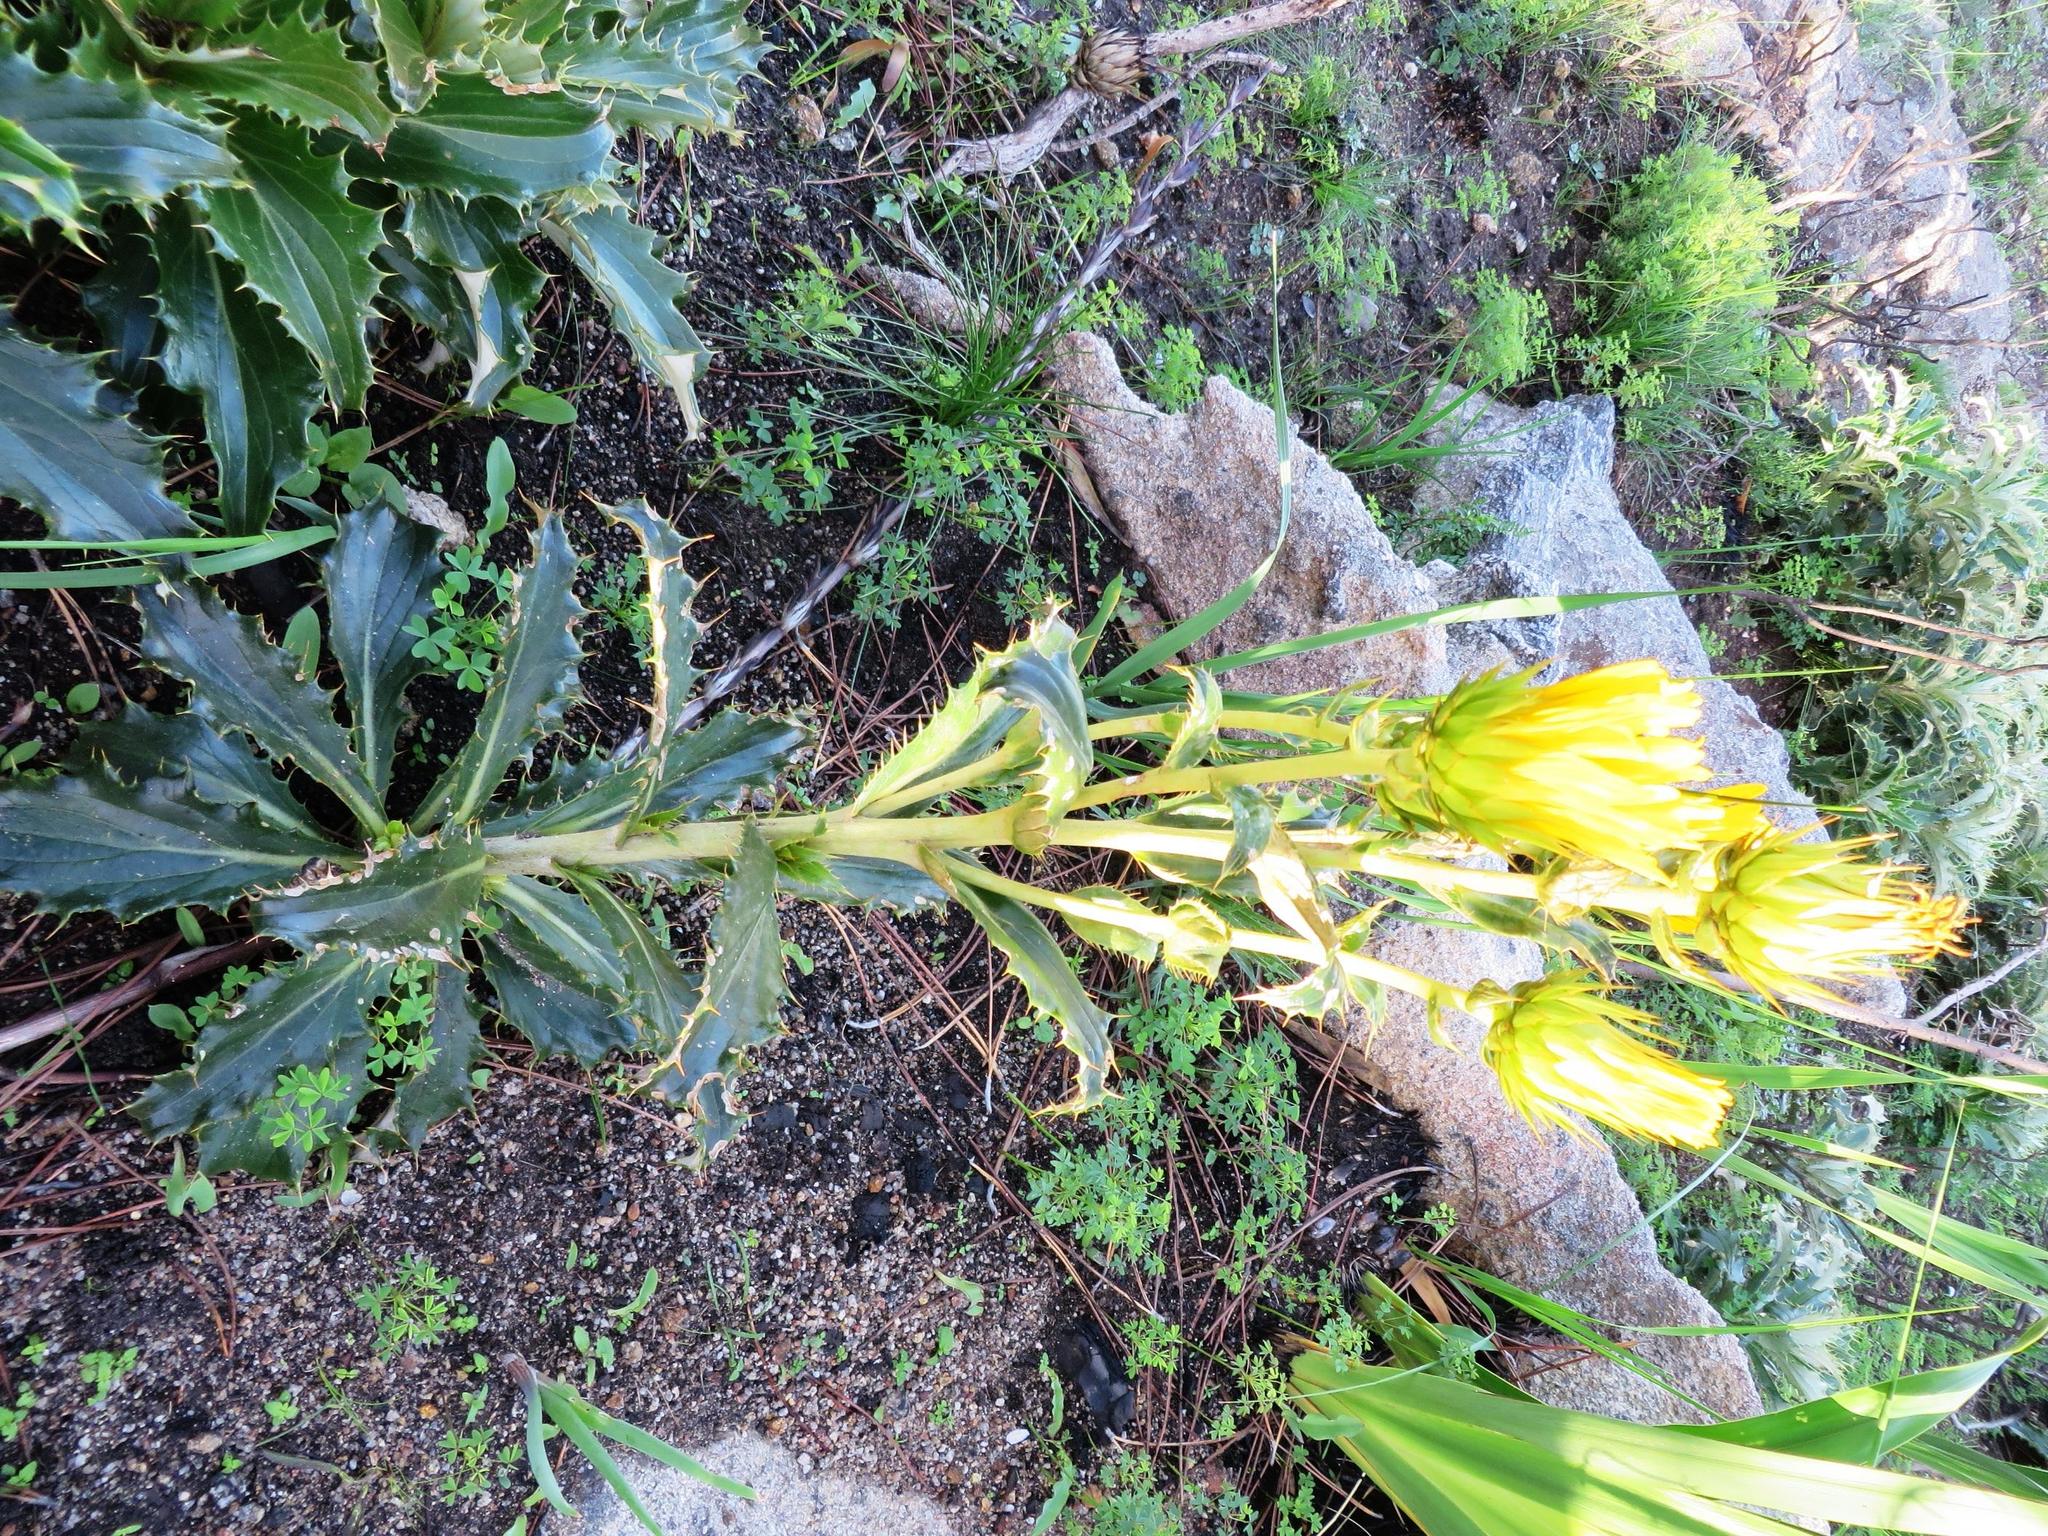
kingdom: Plantae
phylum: Tracheophyta
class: Magnoliopsida
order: Asterales
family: Asteraceae
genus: Berkheya
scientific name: Berkheya herbacea
